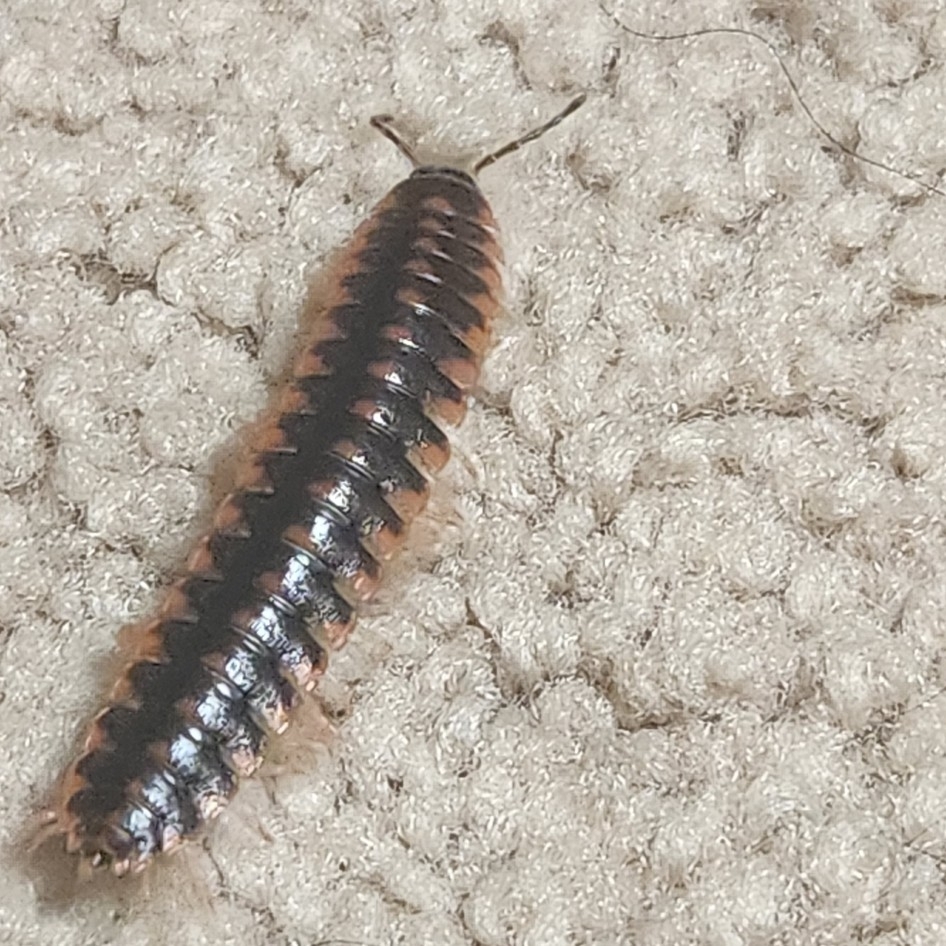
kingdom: Animalia
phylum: Arthropoda
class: Diplopoda
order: Polydesmida
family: Xystodesmidae
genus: Cherokia
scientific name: Cherokia georgiana
